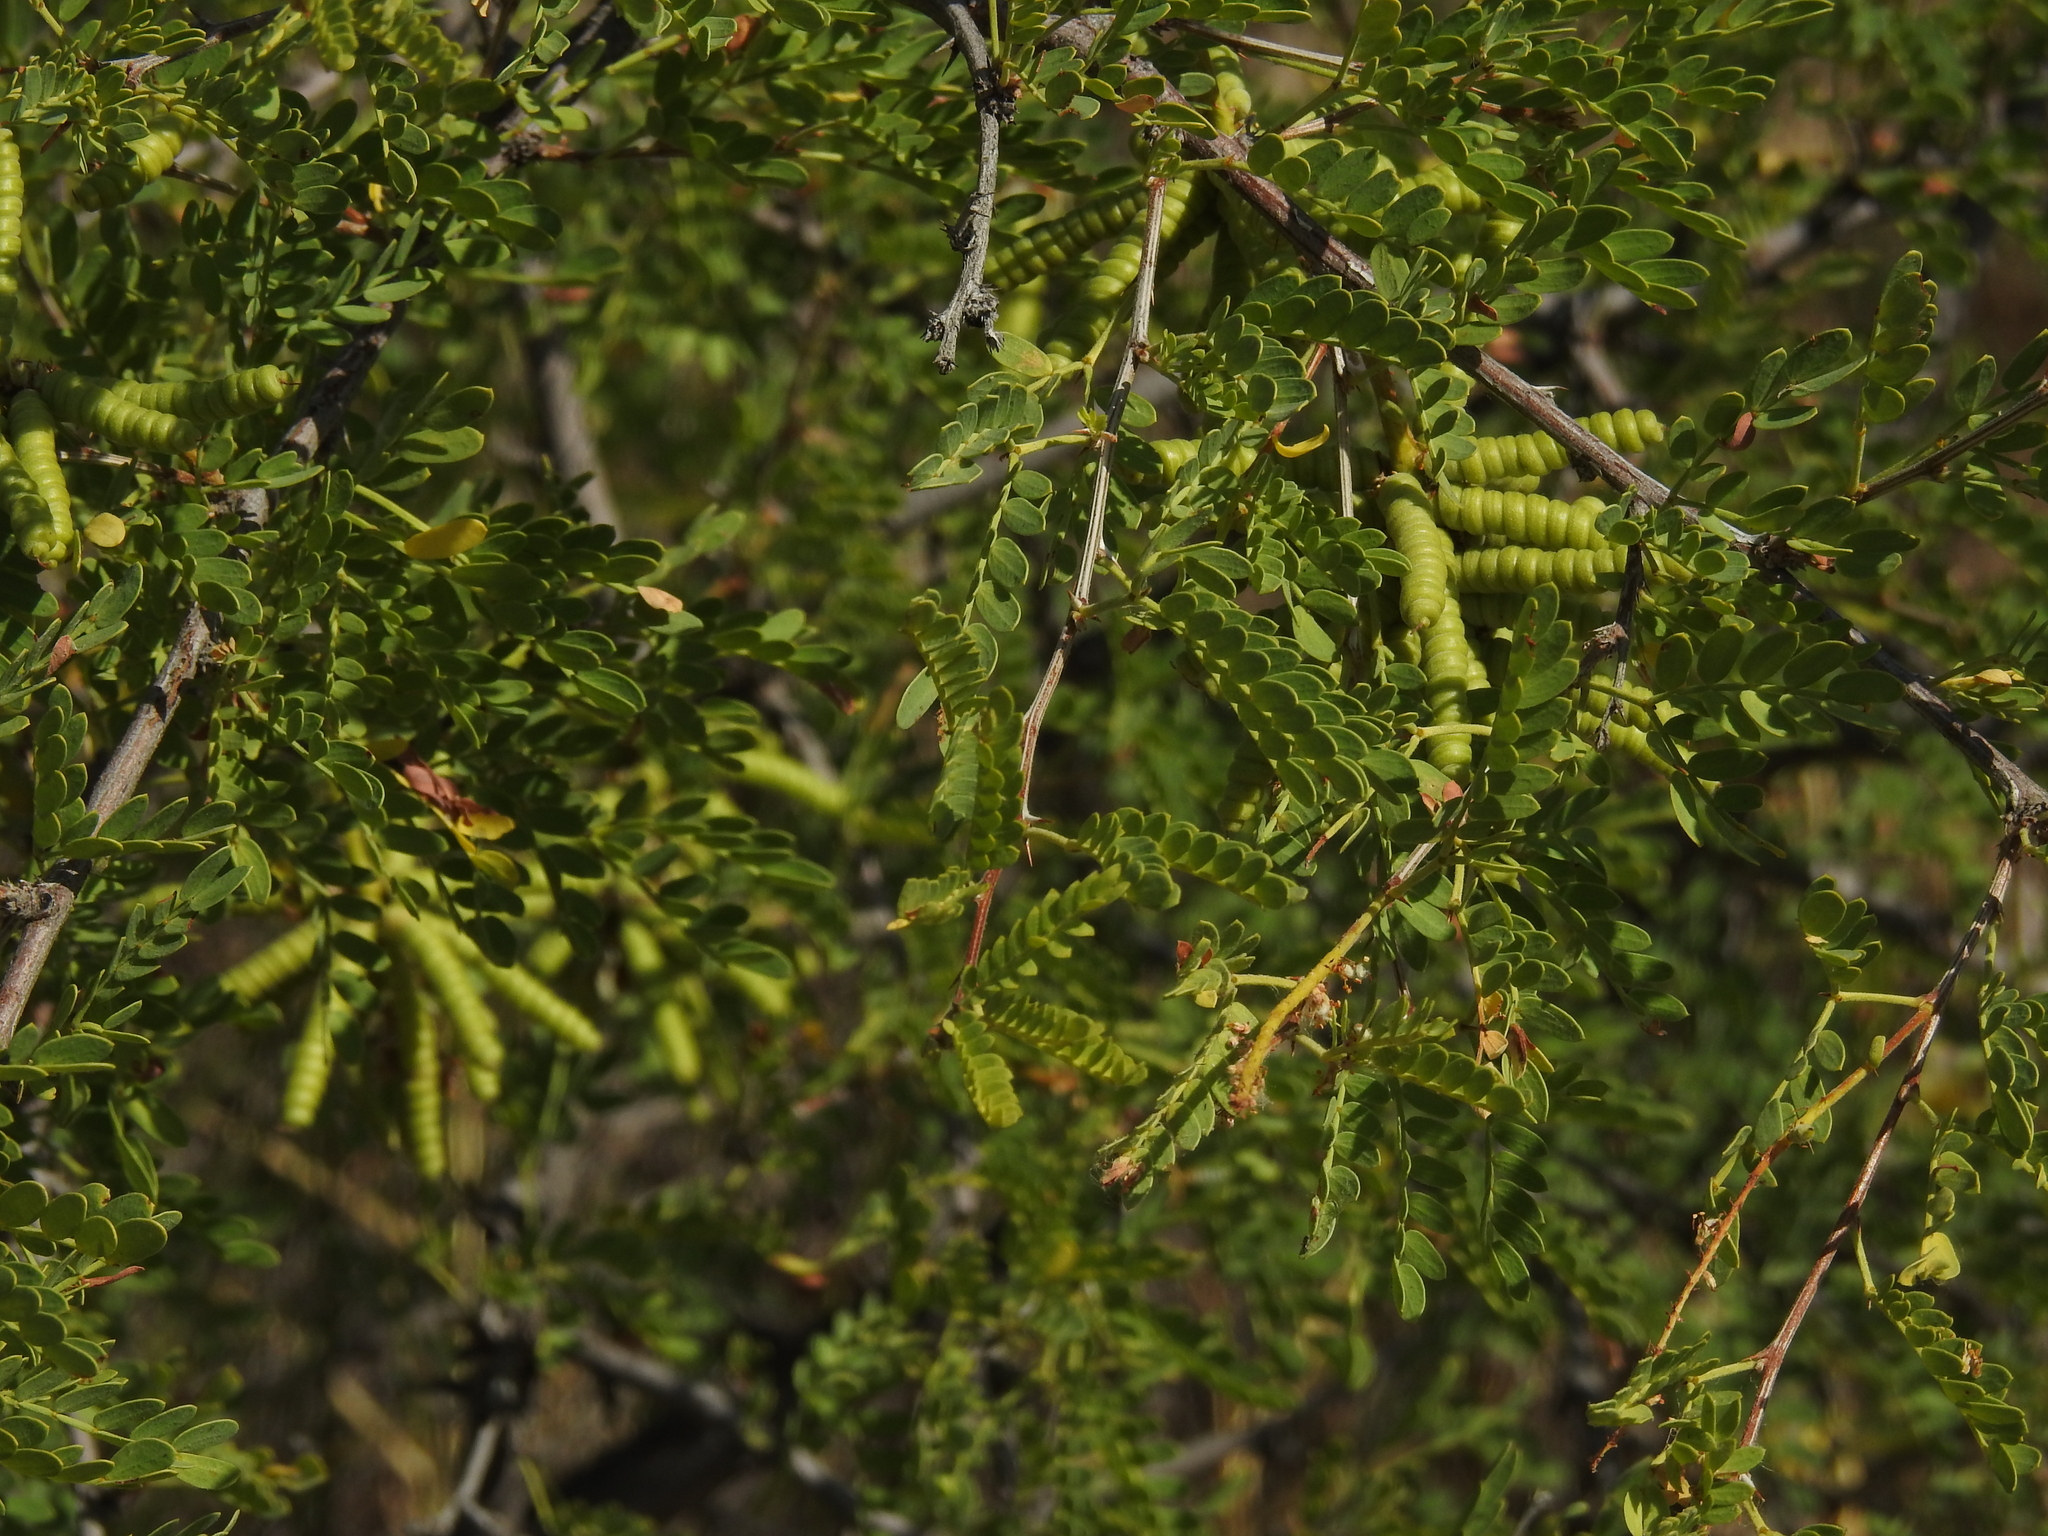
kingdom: Plantae
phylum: Tracheophyta
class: Magnoliopsida
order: Fabales
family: Fabaceae
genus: Prosopis
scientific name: Prosopis pubescens
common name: Screw-bean
